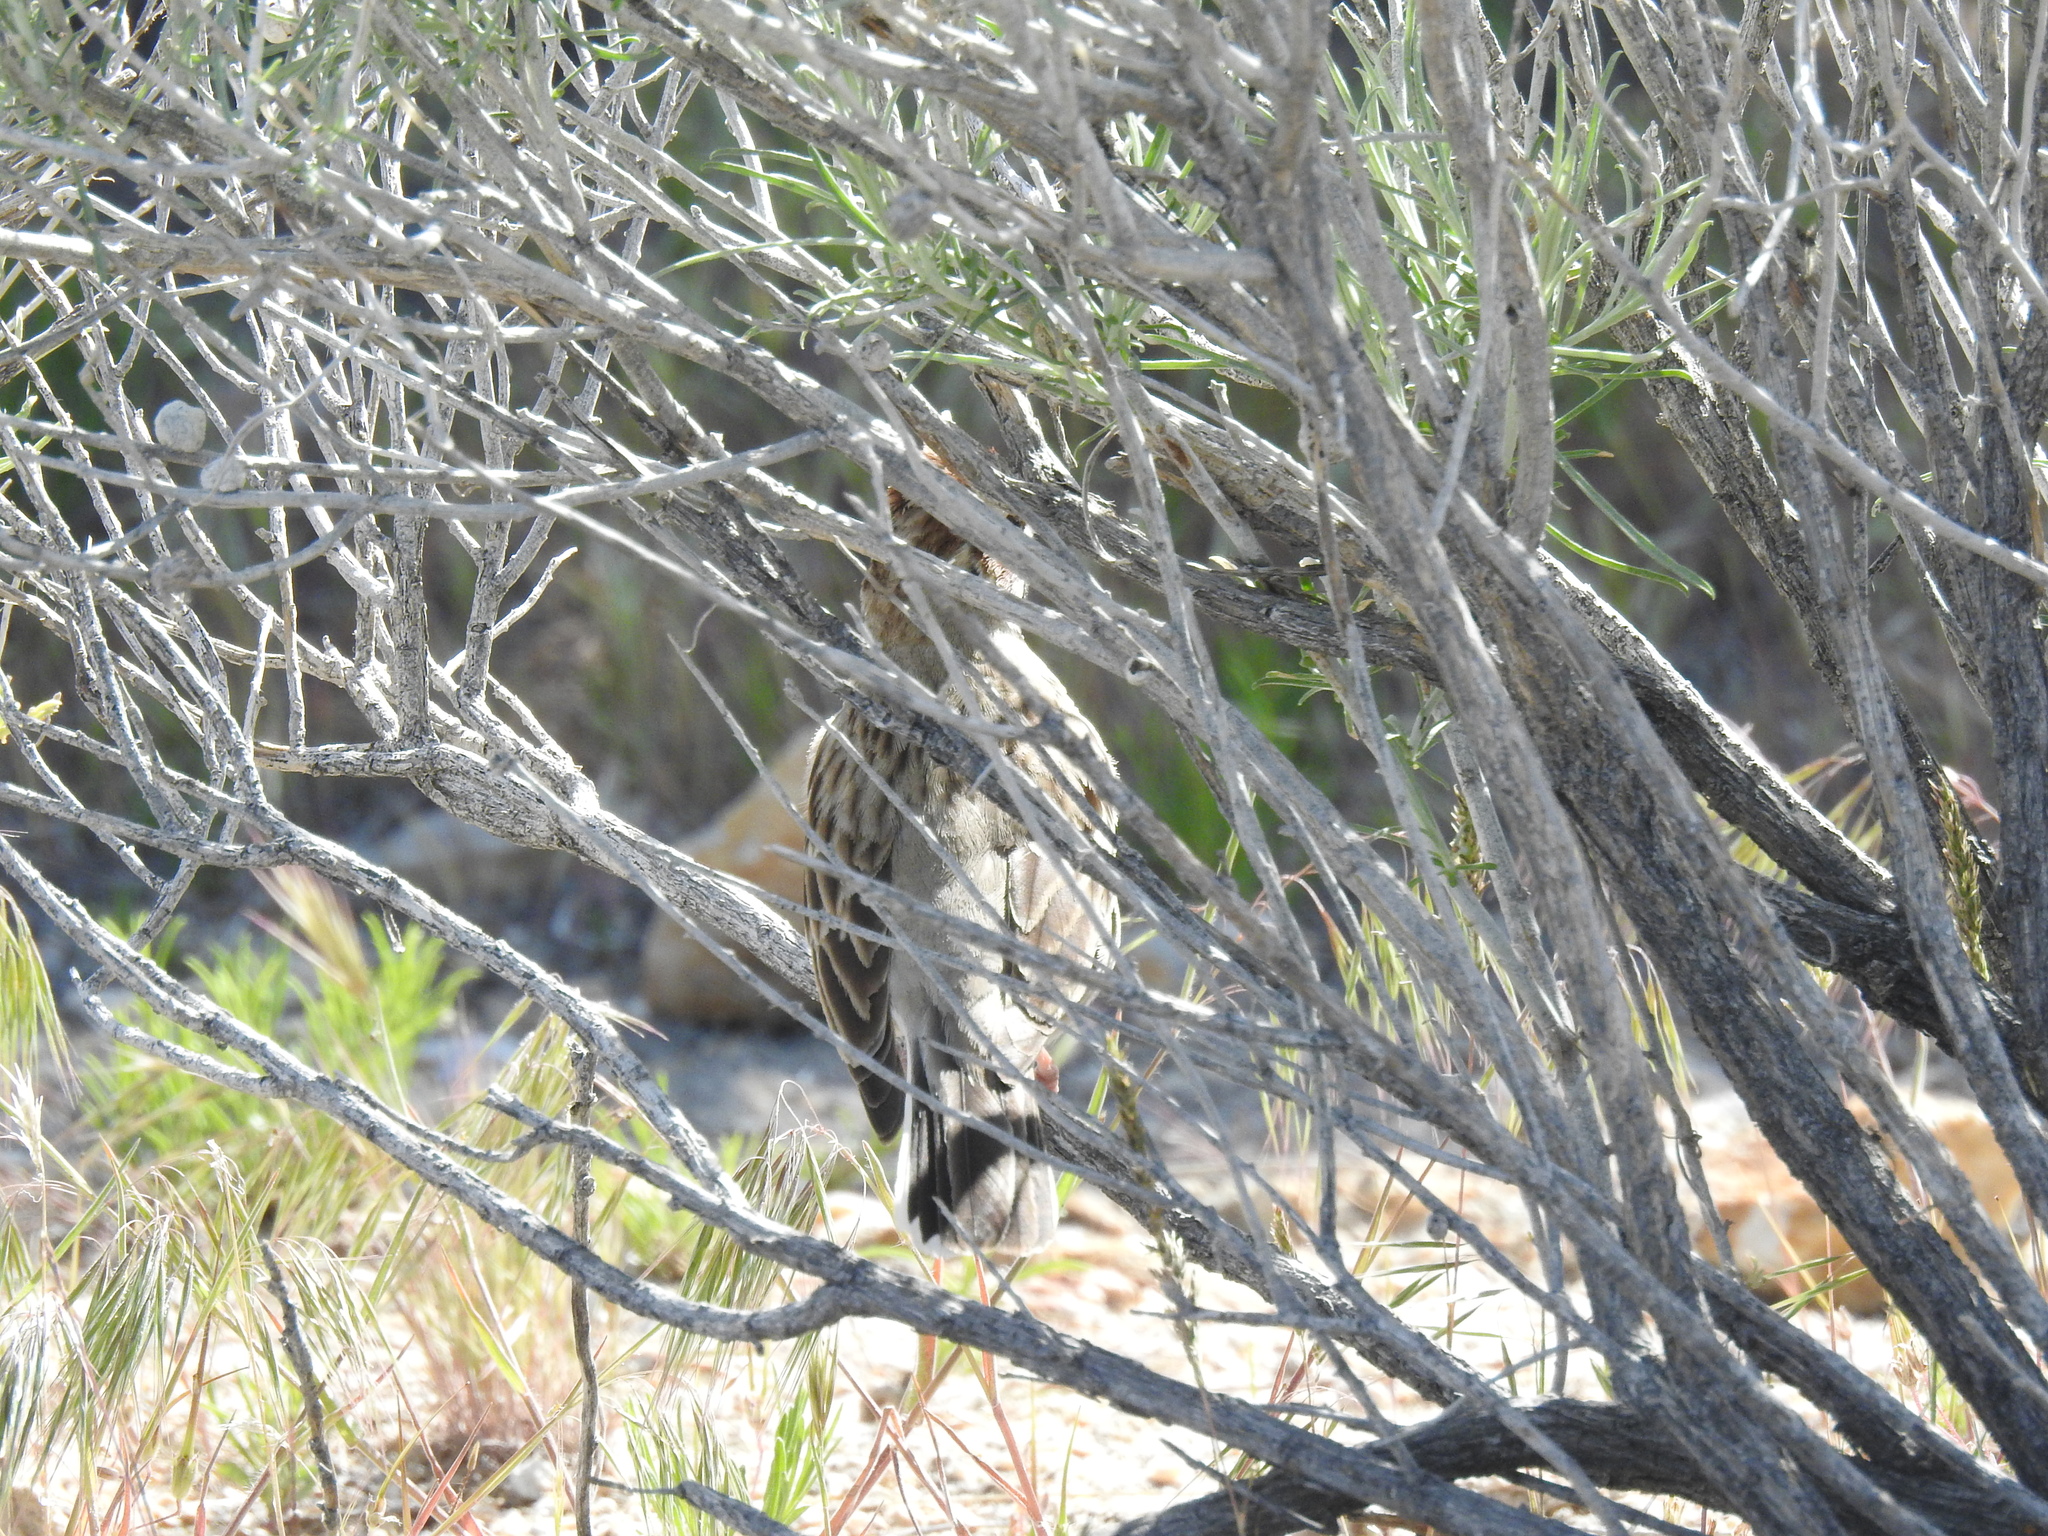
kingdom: Animalia
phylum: Chordata
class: Aves
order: Passeriformes
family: Passerellidae
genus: Chondestes
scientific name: Chondestes grammacus
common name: Lark sparrow
